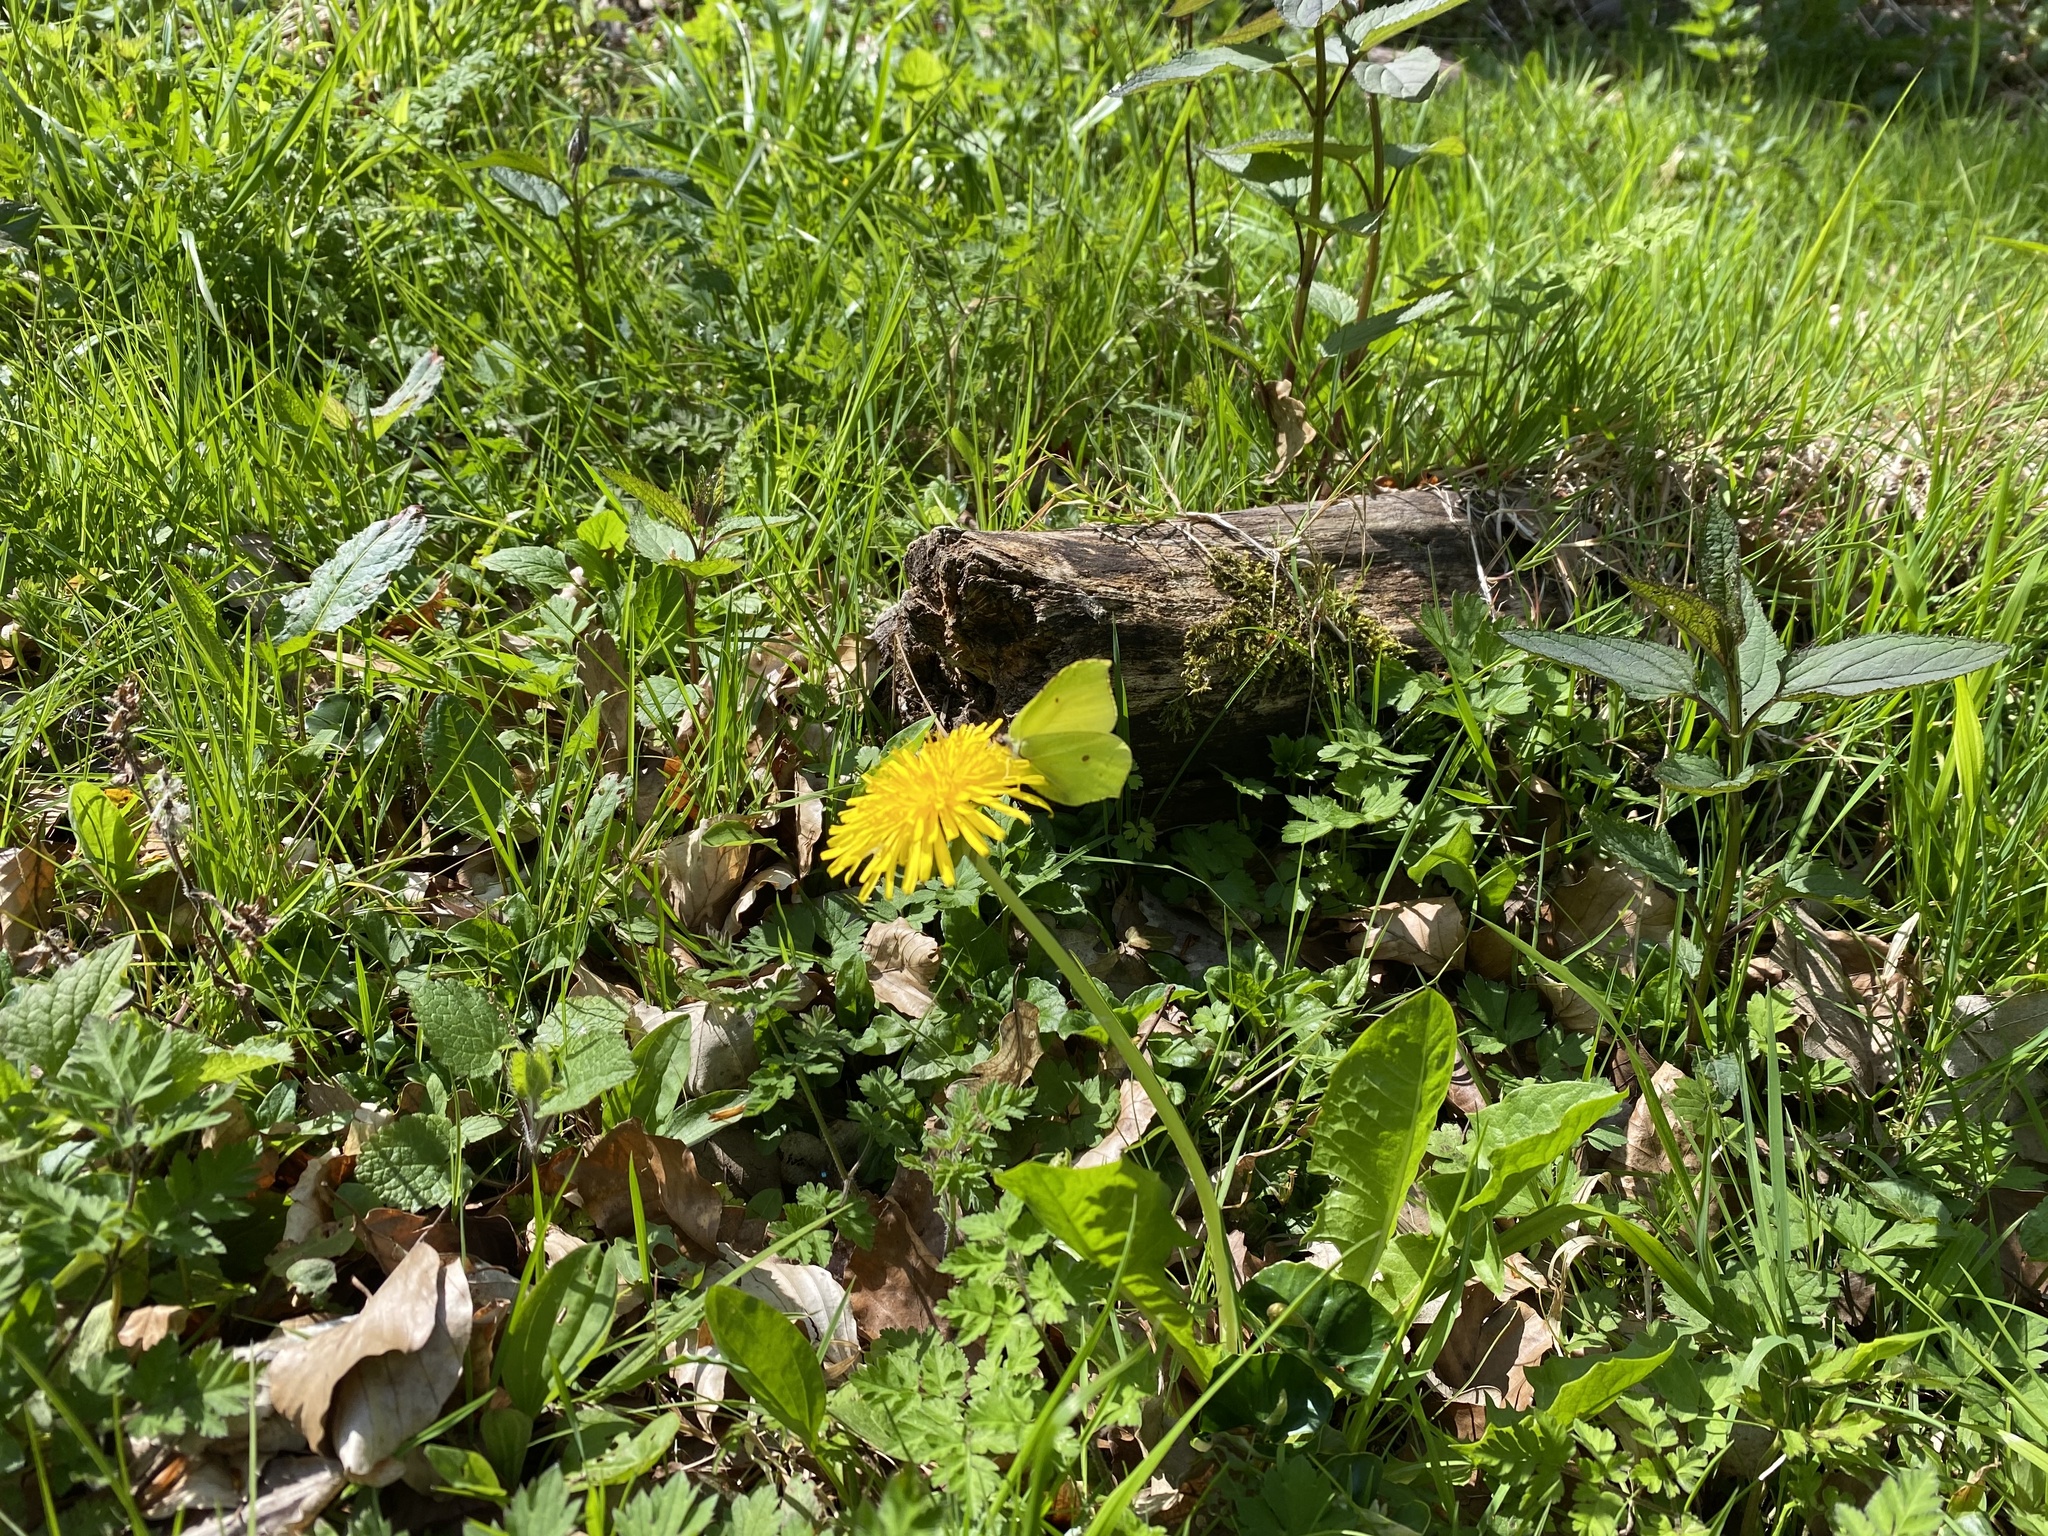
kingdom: Animalia
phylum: Arthropoda
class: Insecta
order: Lepidoptera
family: Pieridae
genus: Gonepteryx
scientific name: Gonepteryx rhamni
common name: Brimstone
